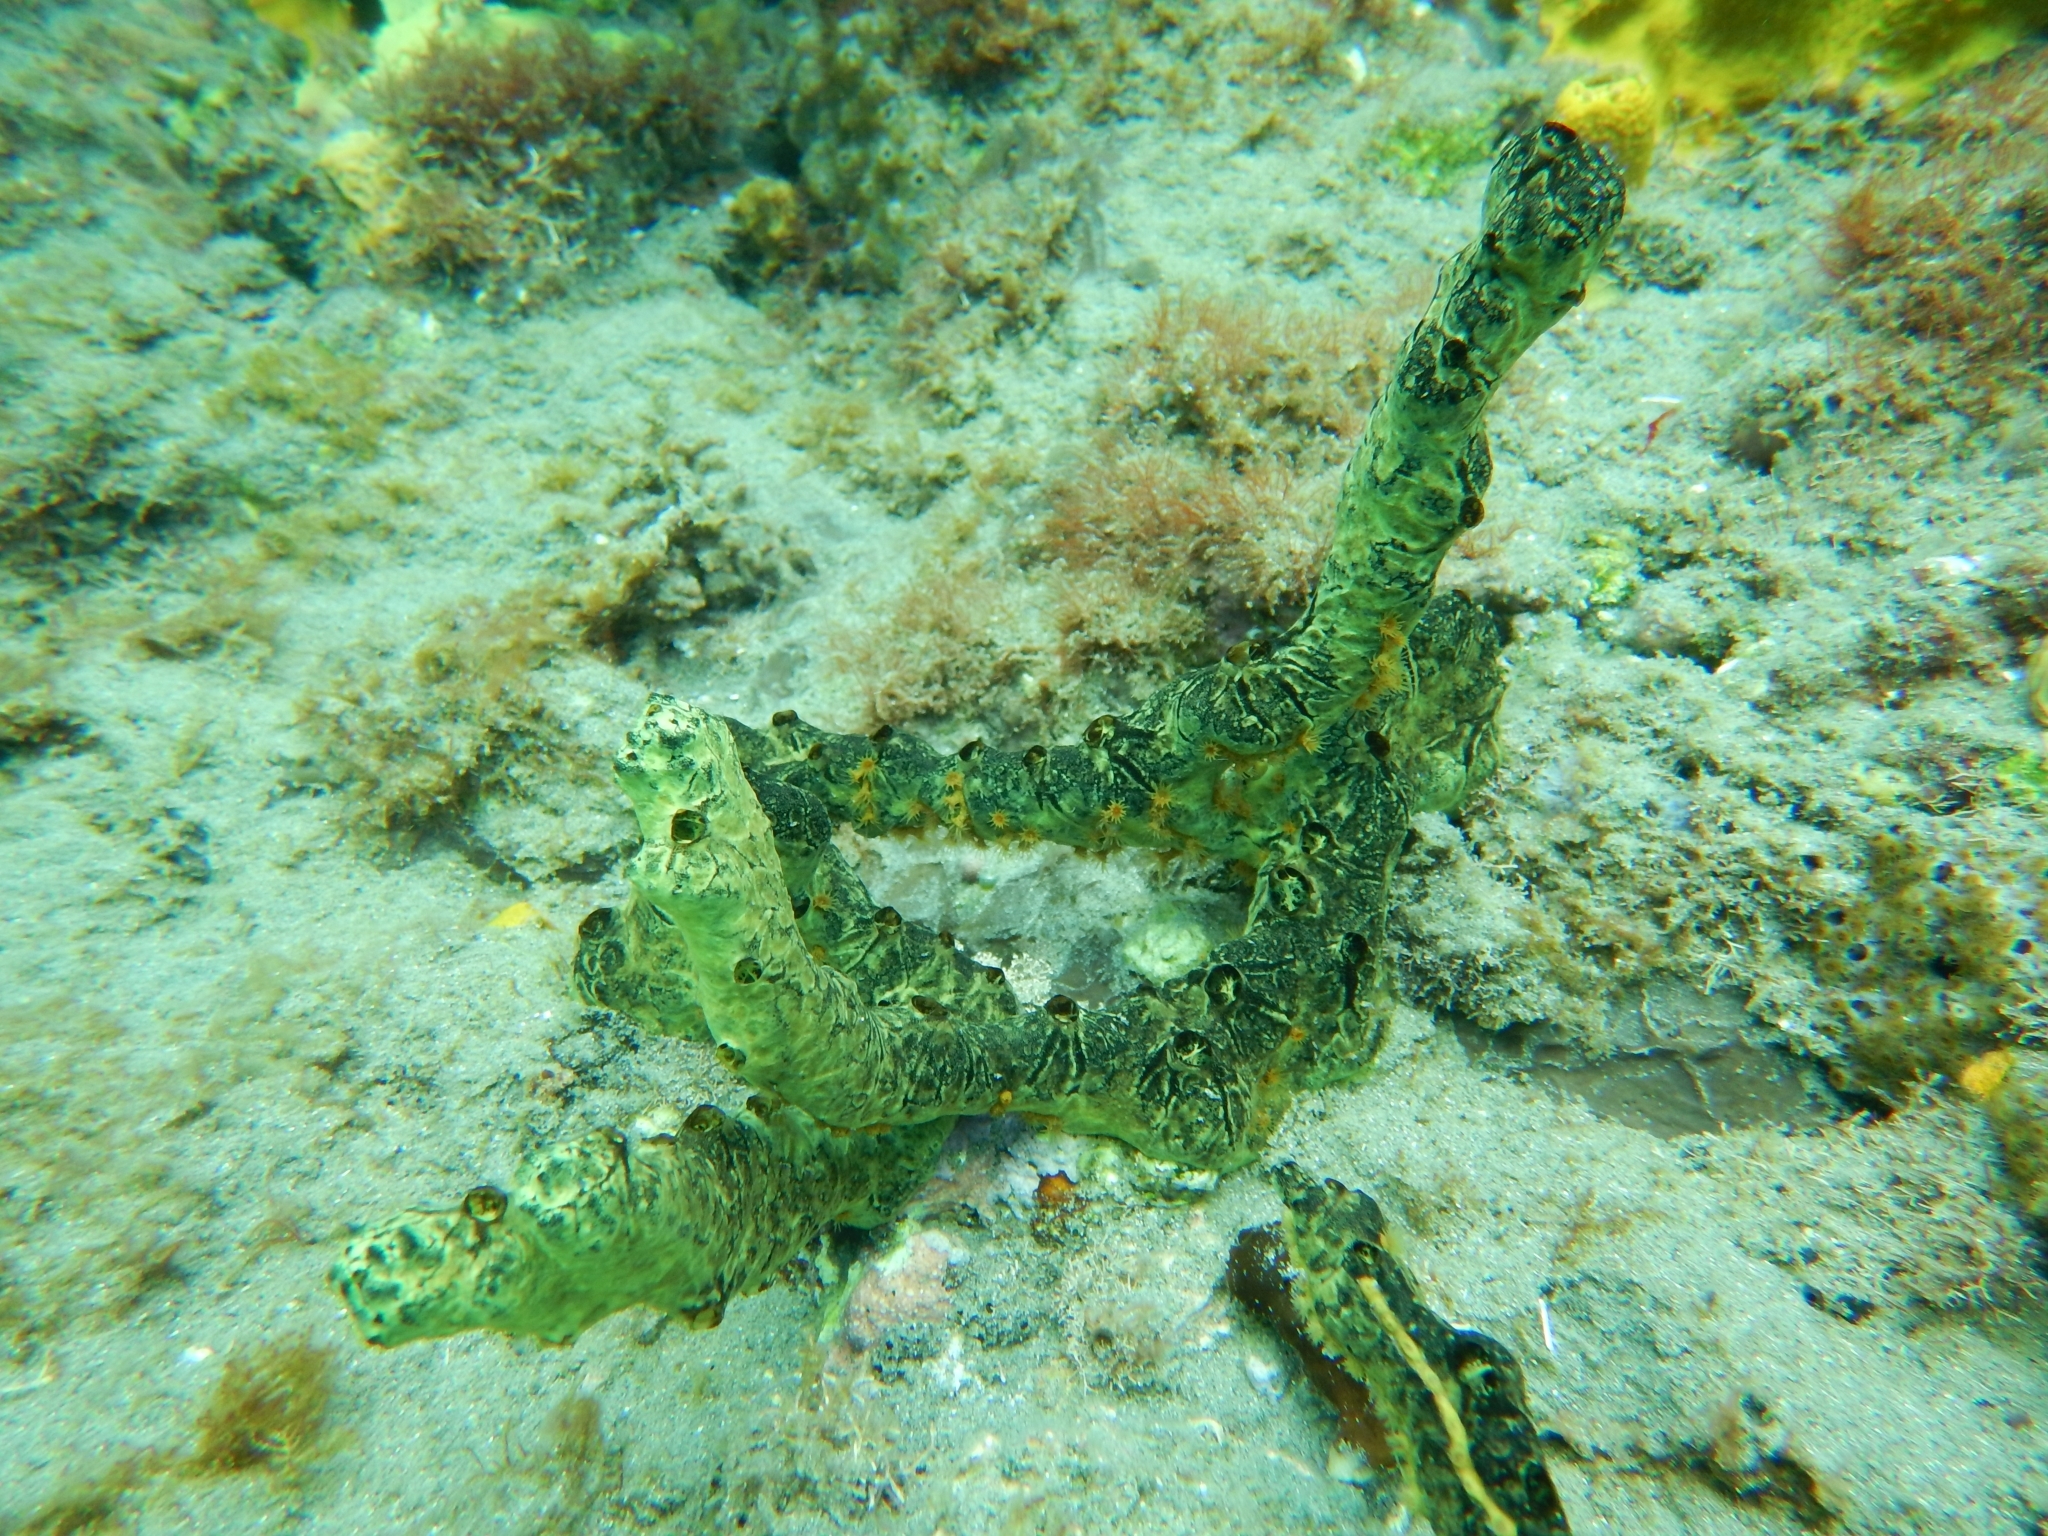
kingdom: Animalia
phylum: Porifera
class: Demospongiae
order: Poecilosclerida
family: Iotrochotidae
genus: Iotrochota
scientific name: Iotrochota birotulata
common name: Purple bleeding sponge
